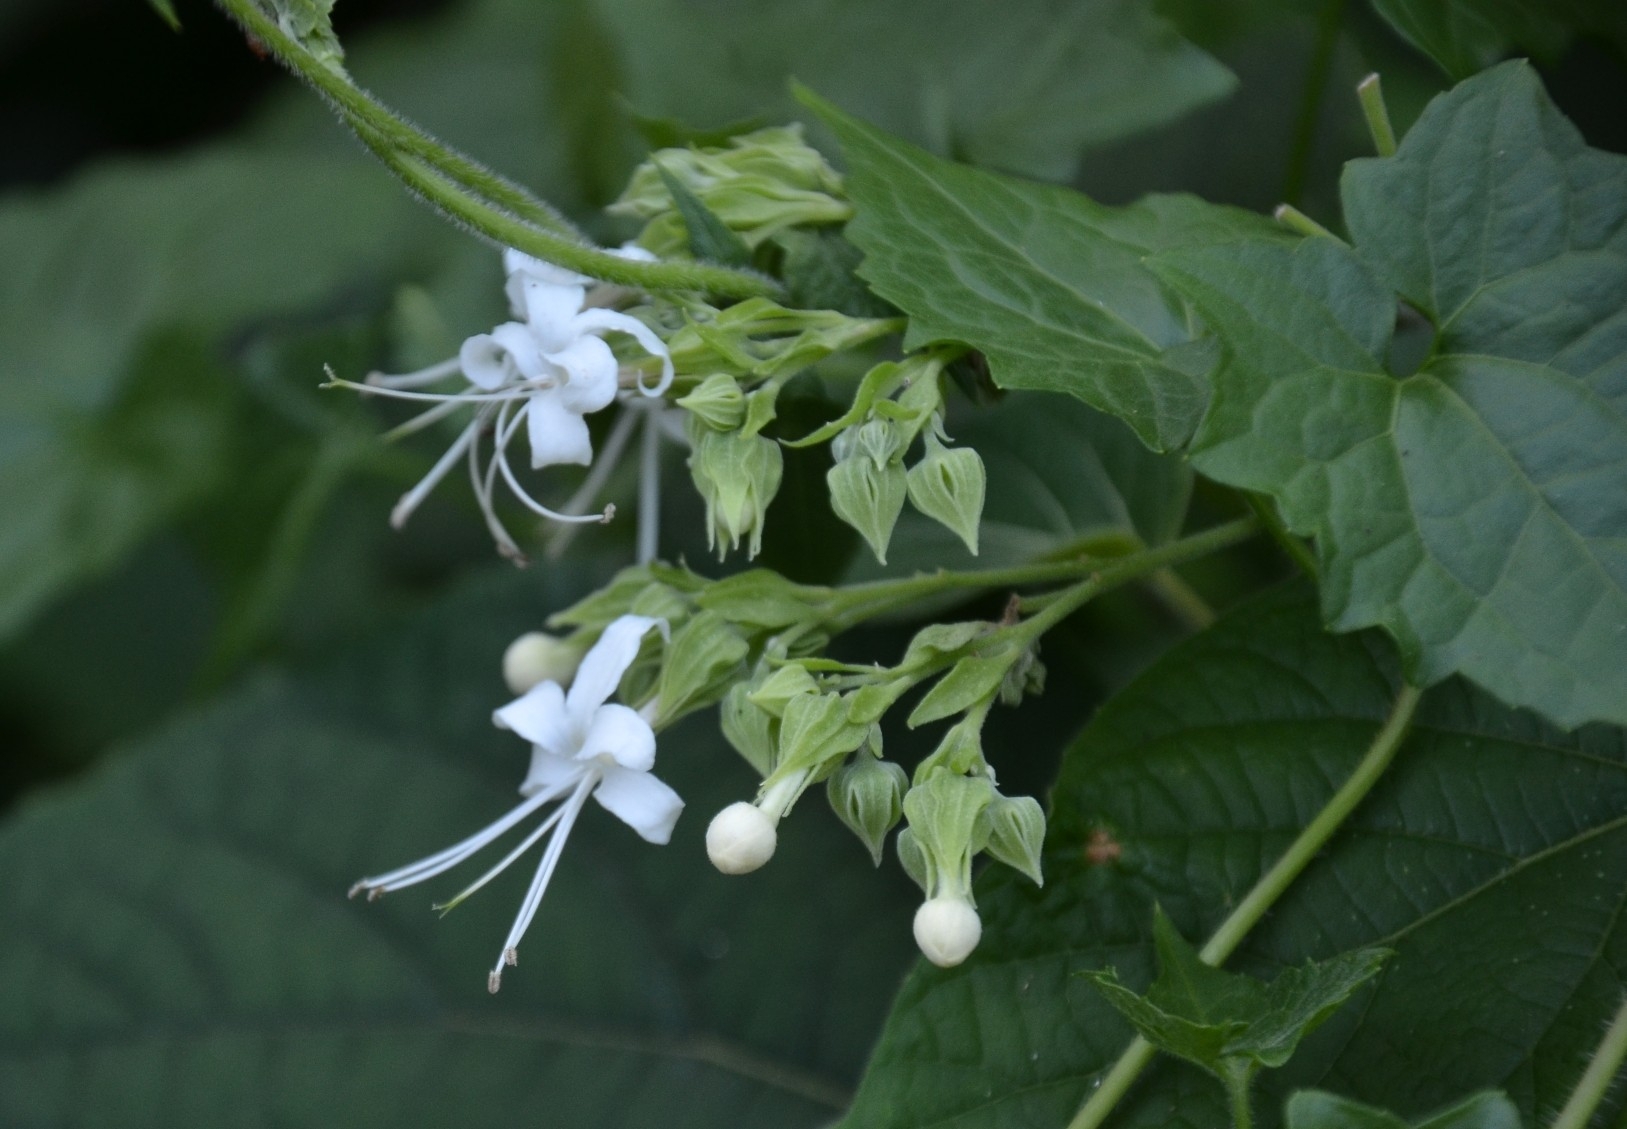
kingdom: Plantae
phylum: Tracheophyta
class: Magnoliopsida
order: Lamiales
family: Lamiaceae
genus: Clerodendrum
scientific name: Clerodendrum infortunatum
